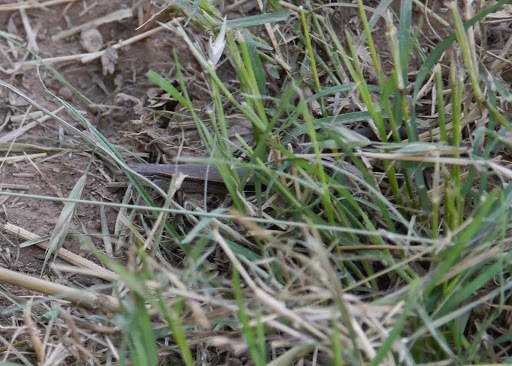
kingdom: Animalia
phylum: Chordata
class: Squamata
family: Scincidae
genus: Scincella
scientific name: Scincella lateralis
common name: Ground skink
